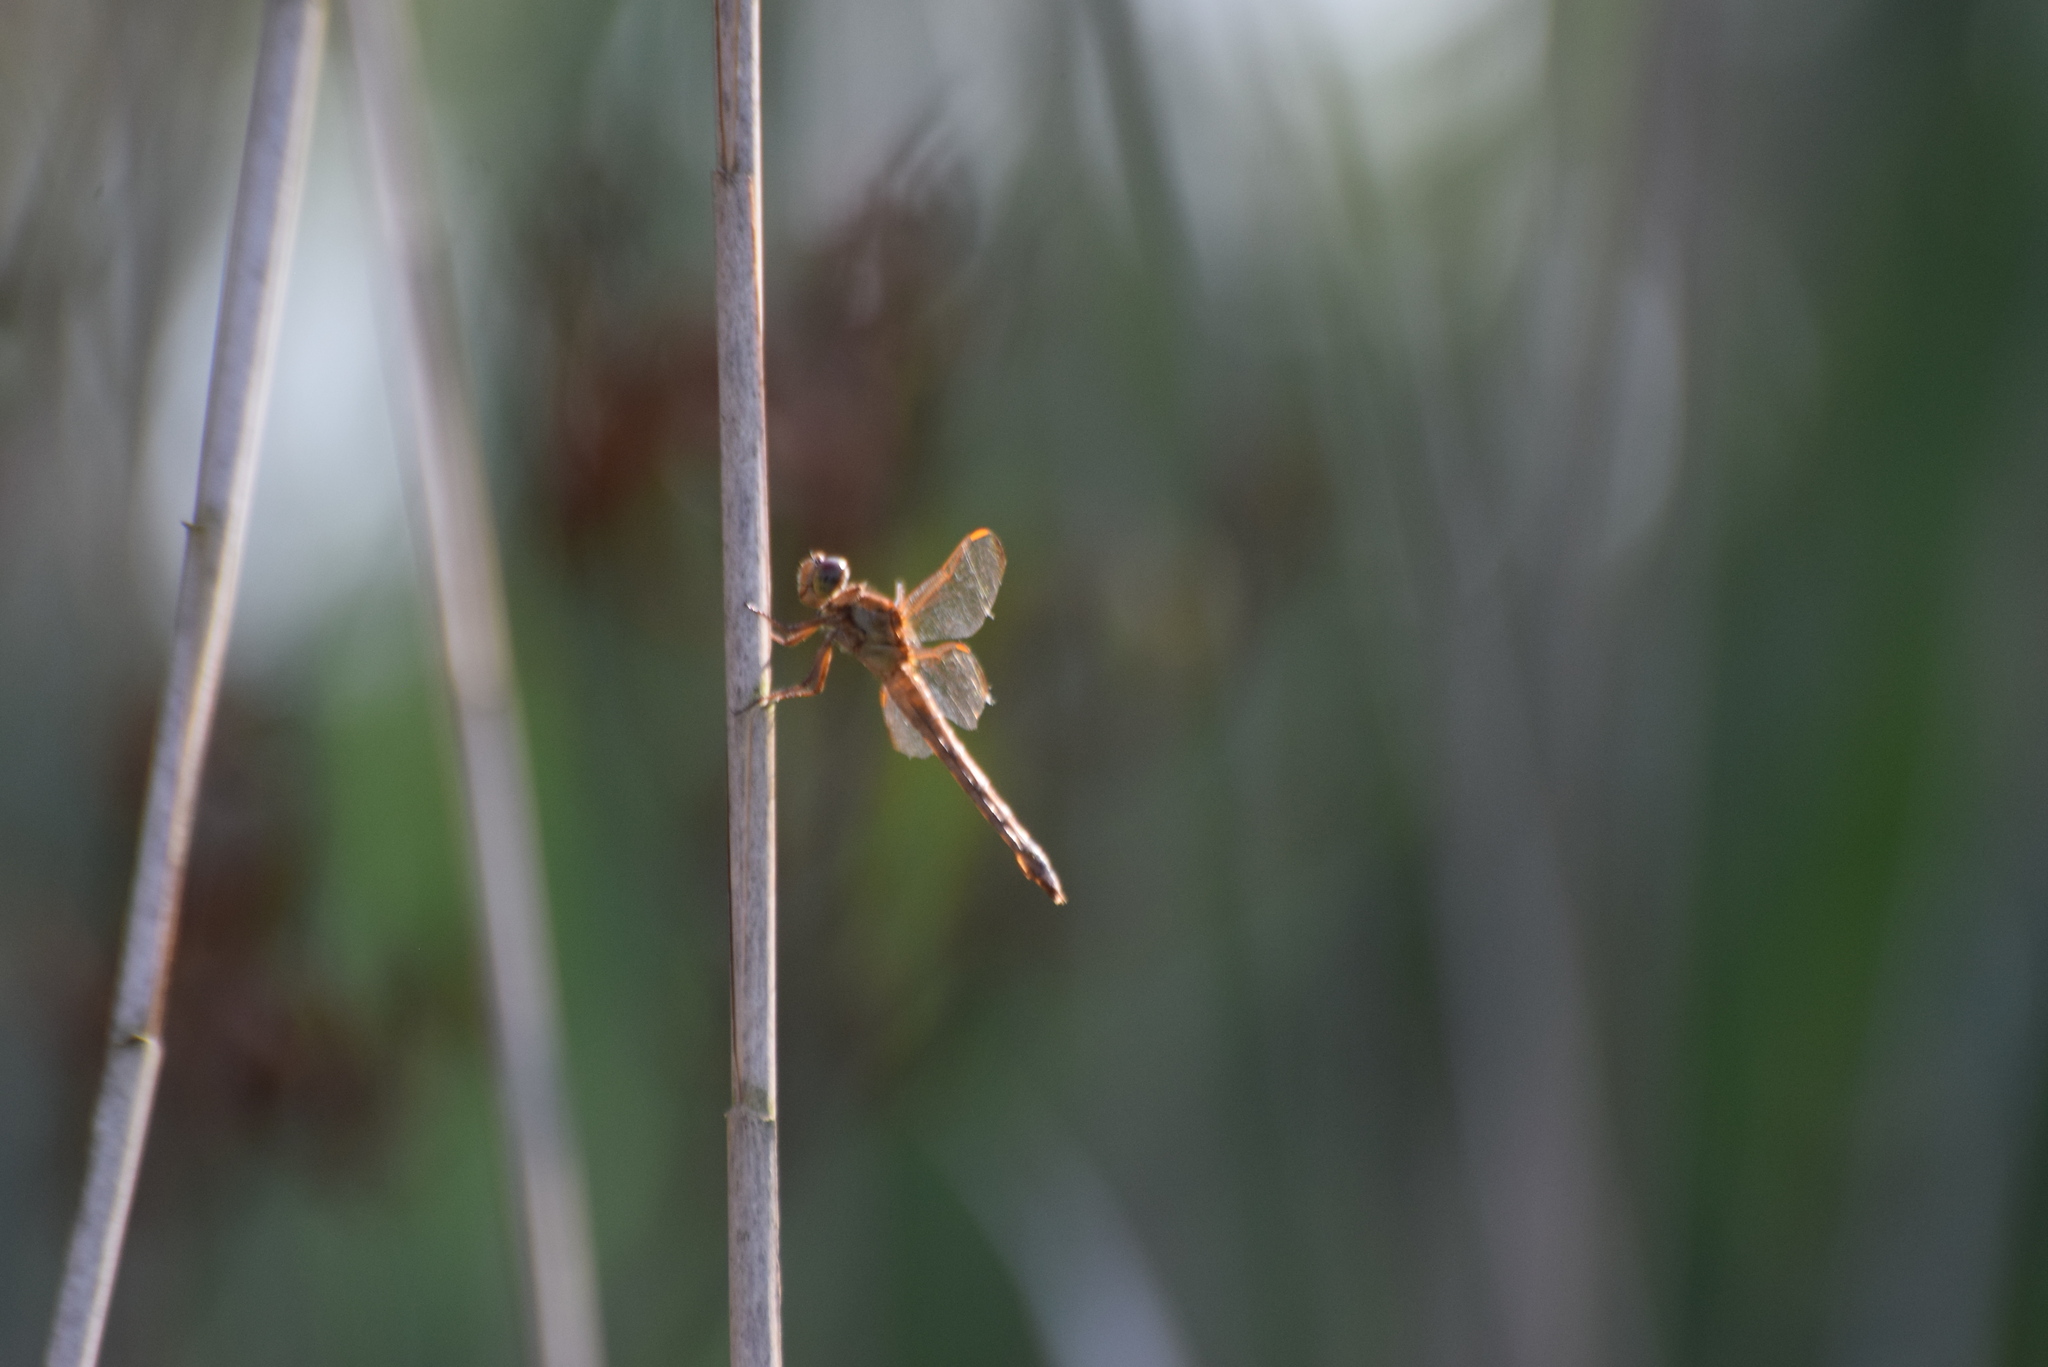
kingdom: Animalia
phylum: Arthropoda
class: Insecta
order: Odonata
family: Libellulidae
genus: Libellula
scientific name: Libellula needhami
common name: Needham's skimmer
